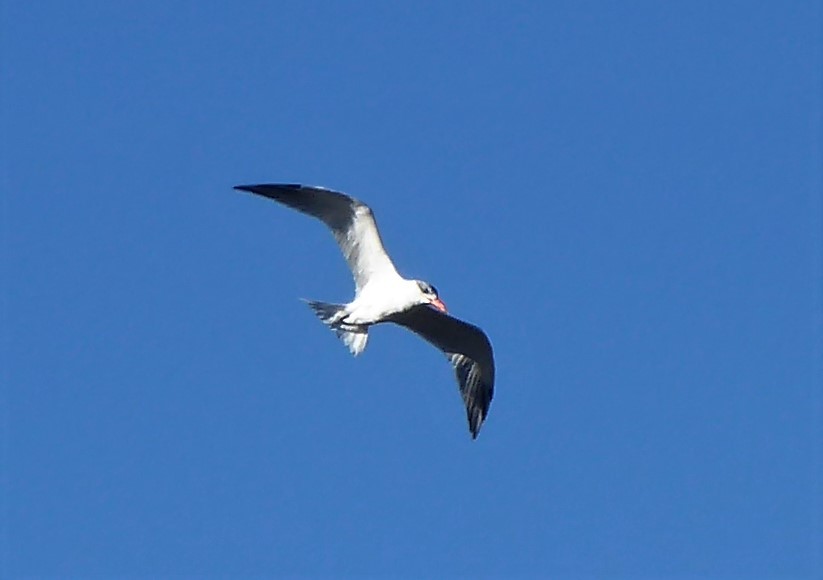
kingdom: Animalia
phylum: Chordata
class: Aves
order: Charadriiformes
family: Laridae
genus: Hydroprogne
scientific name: Hydroprogne caspia
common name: Caspian tern
